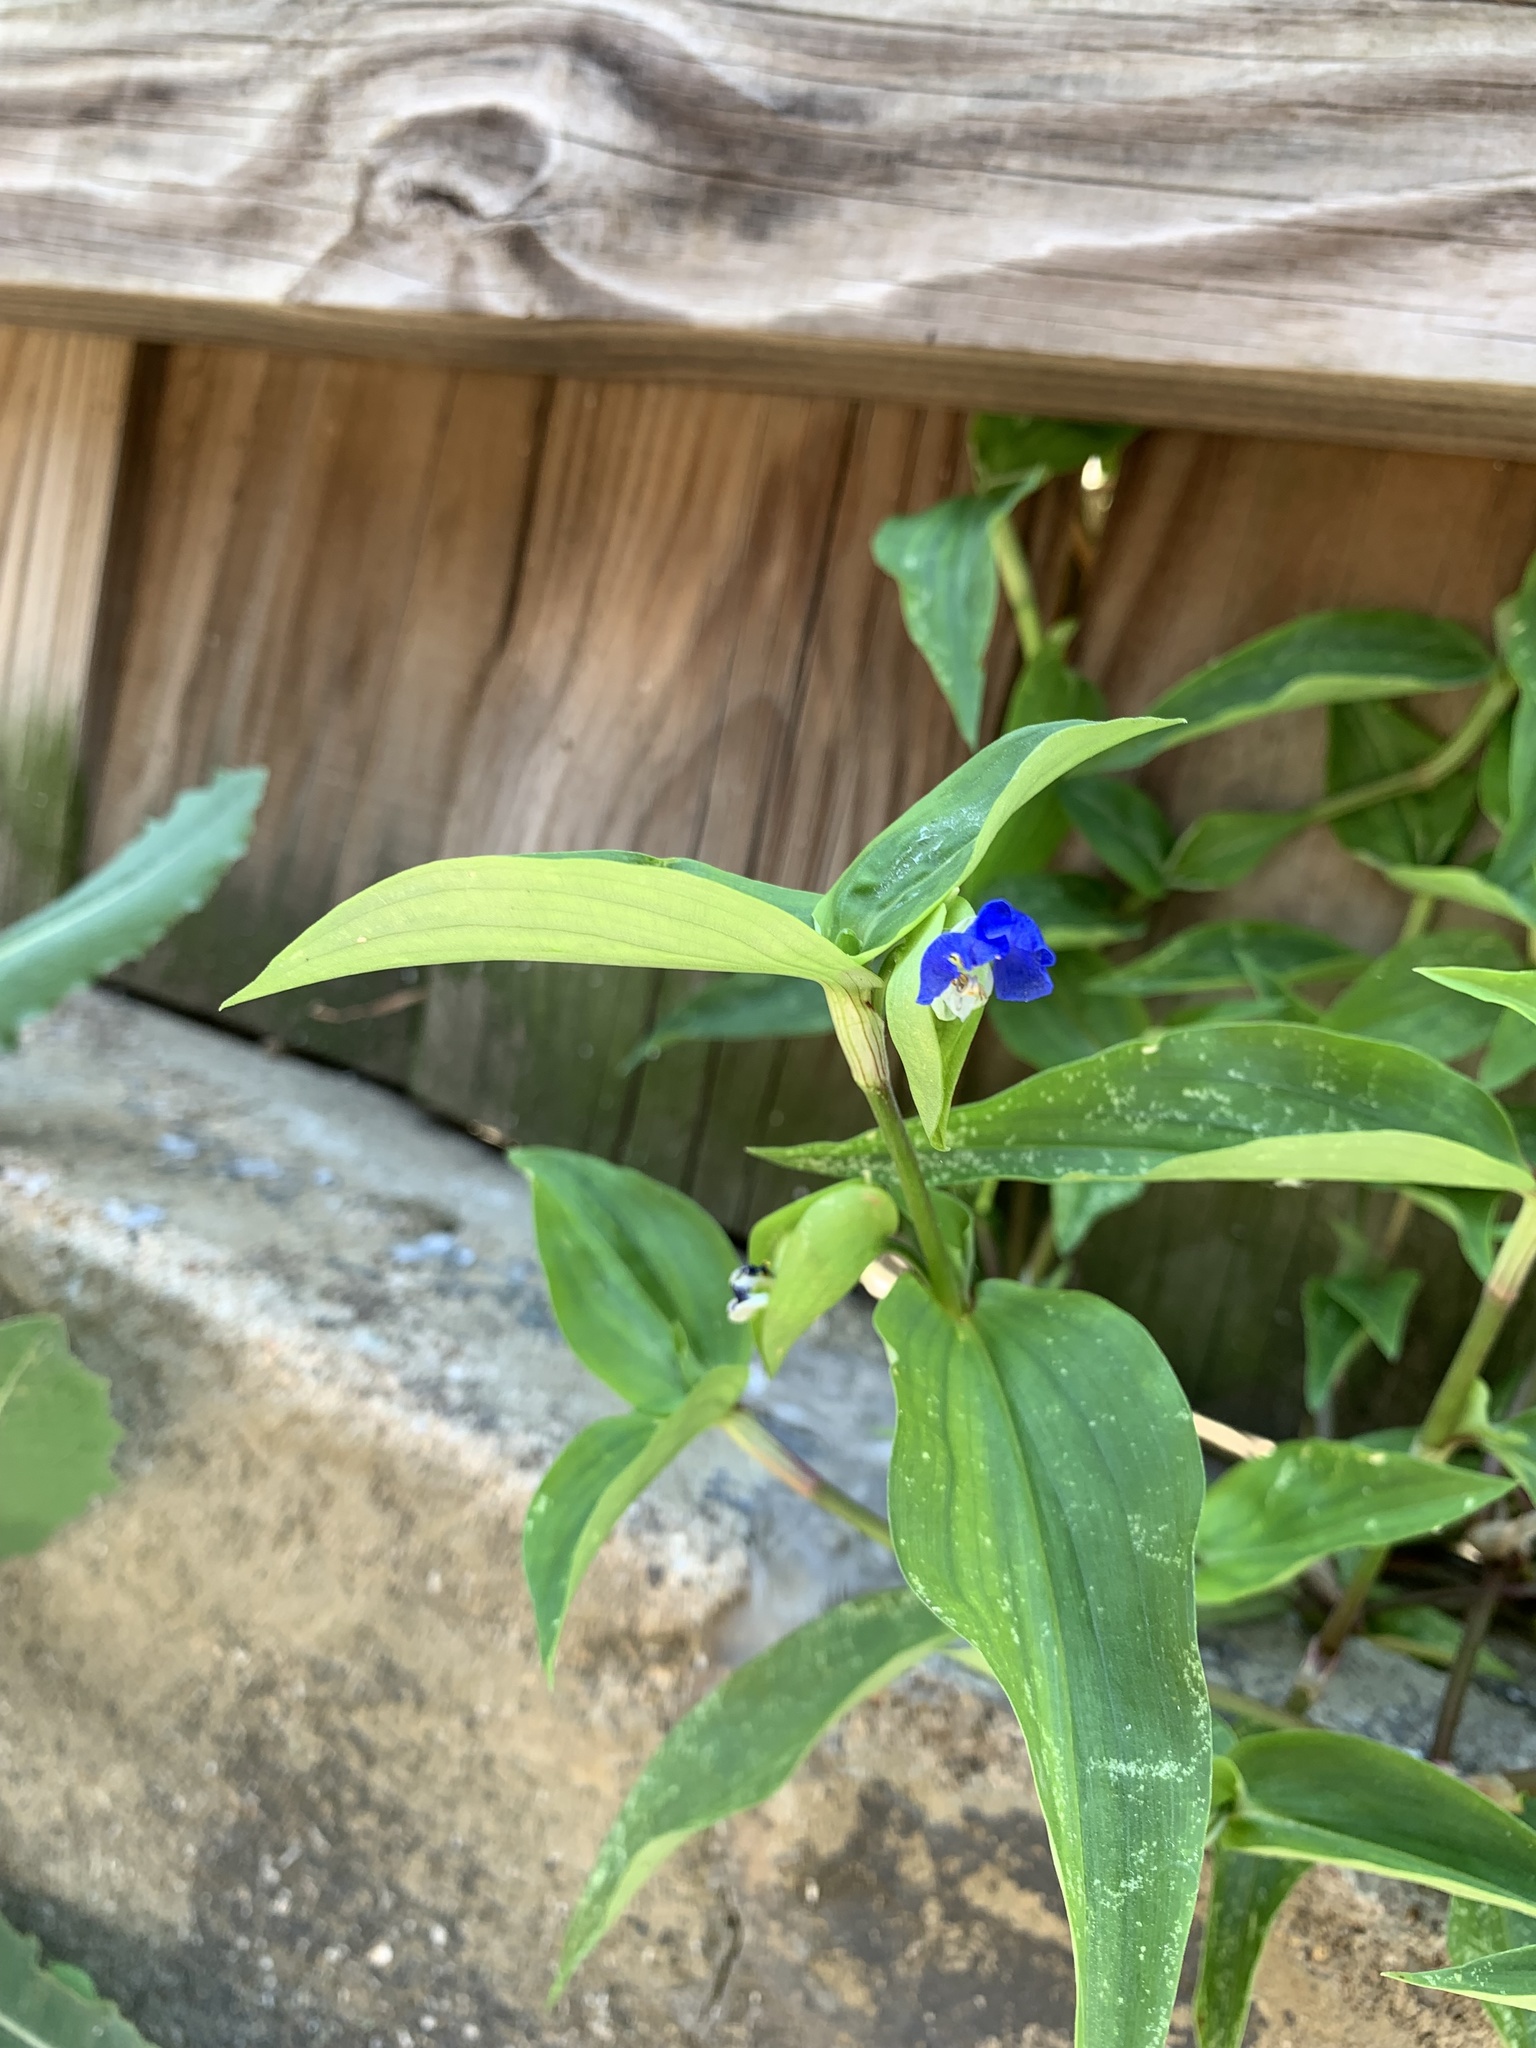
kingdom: Plantae
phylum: Tracheophyta
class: Liliopsida
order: Commelinales
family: Commelinaceae
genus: Commelina
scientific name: Commelina communis
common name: Asiatic dayflower
